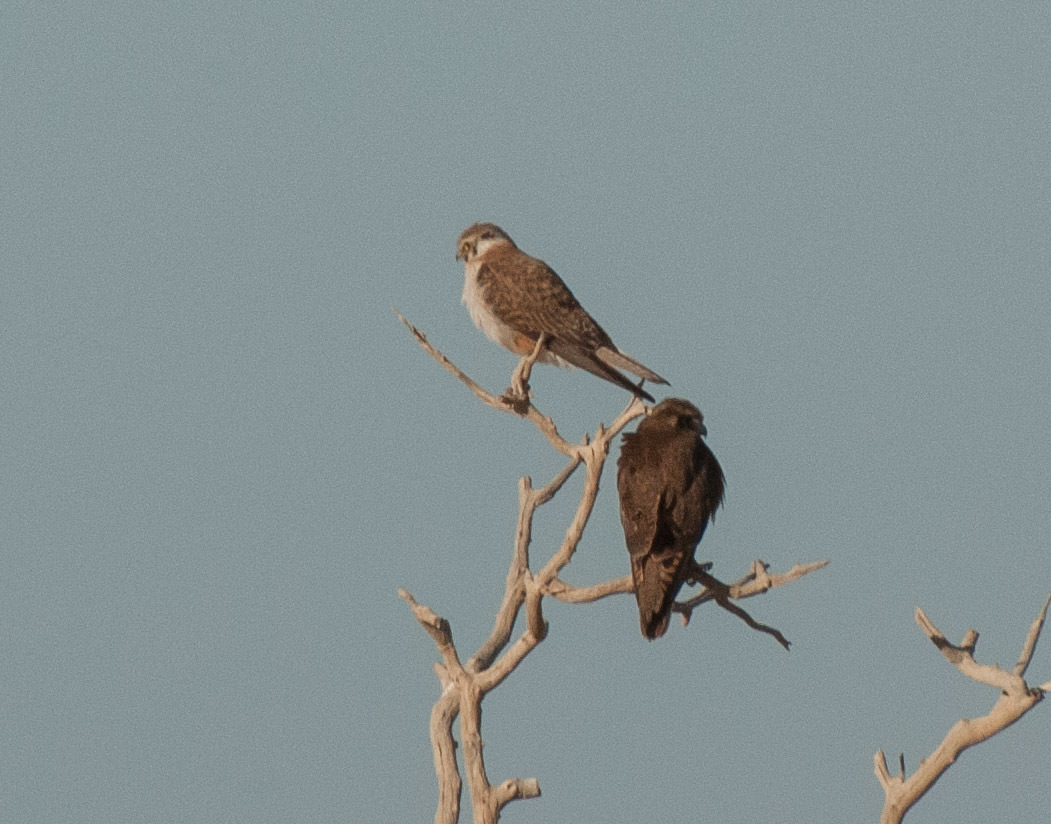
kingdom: Animalia
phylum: Chordata
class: Aves
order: Falconiformes
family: Falconidae
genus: Falco
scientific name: Falco berigora
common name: Brown falcon
